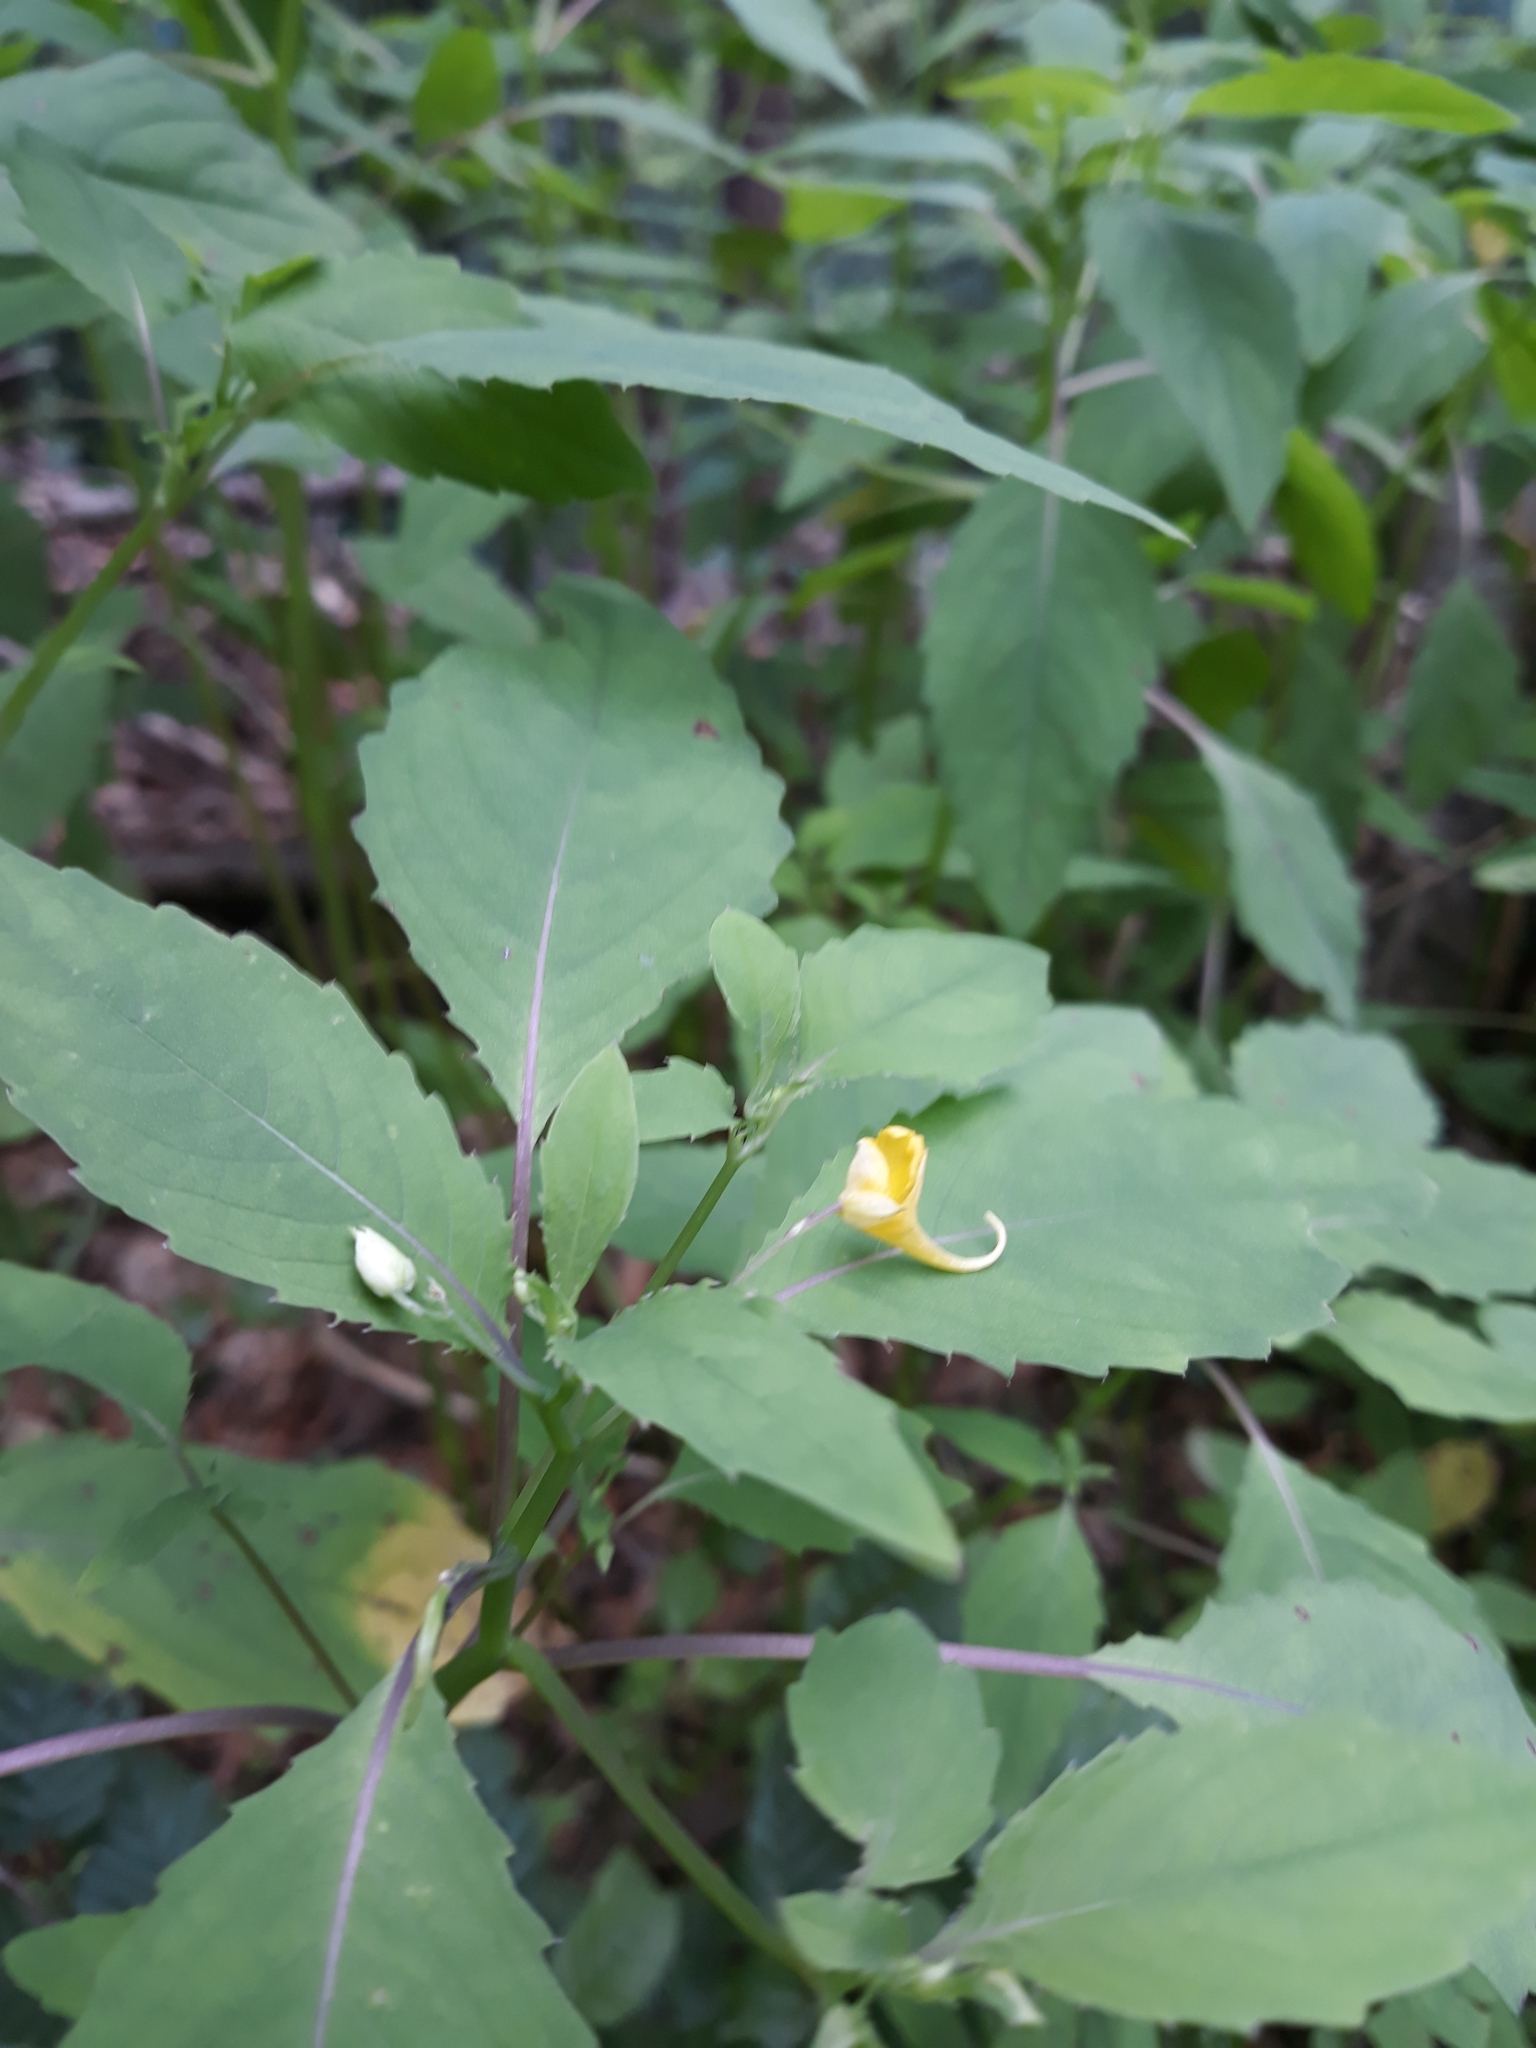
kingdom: Plantae
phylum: Tracheophyta
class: Magnoliopsida
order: Ericales
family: Balsaminaceae
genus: Impatiens
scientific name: Impatiens noli-tangere
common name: Touch-me-not balsam
